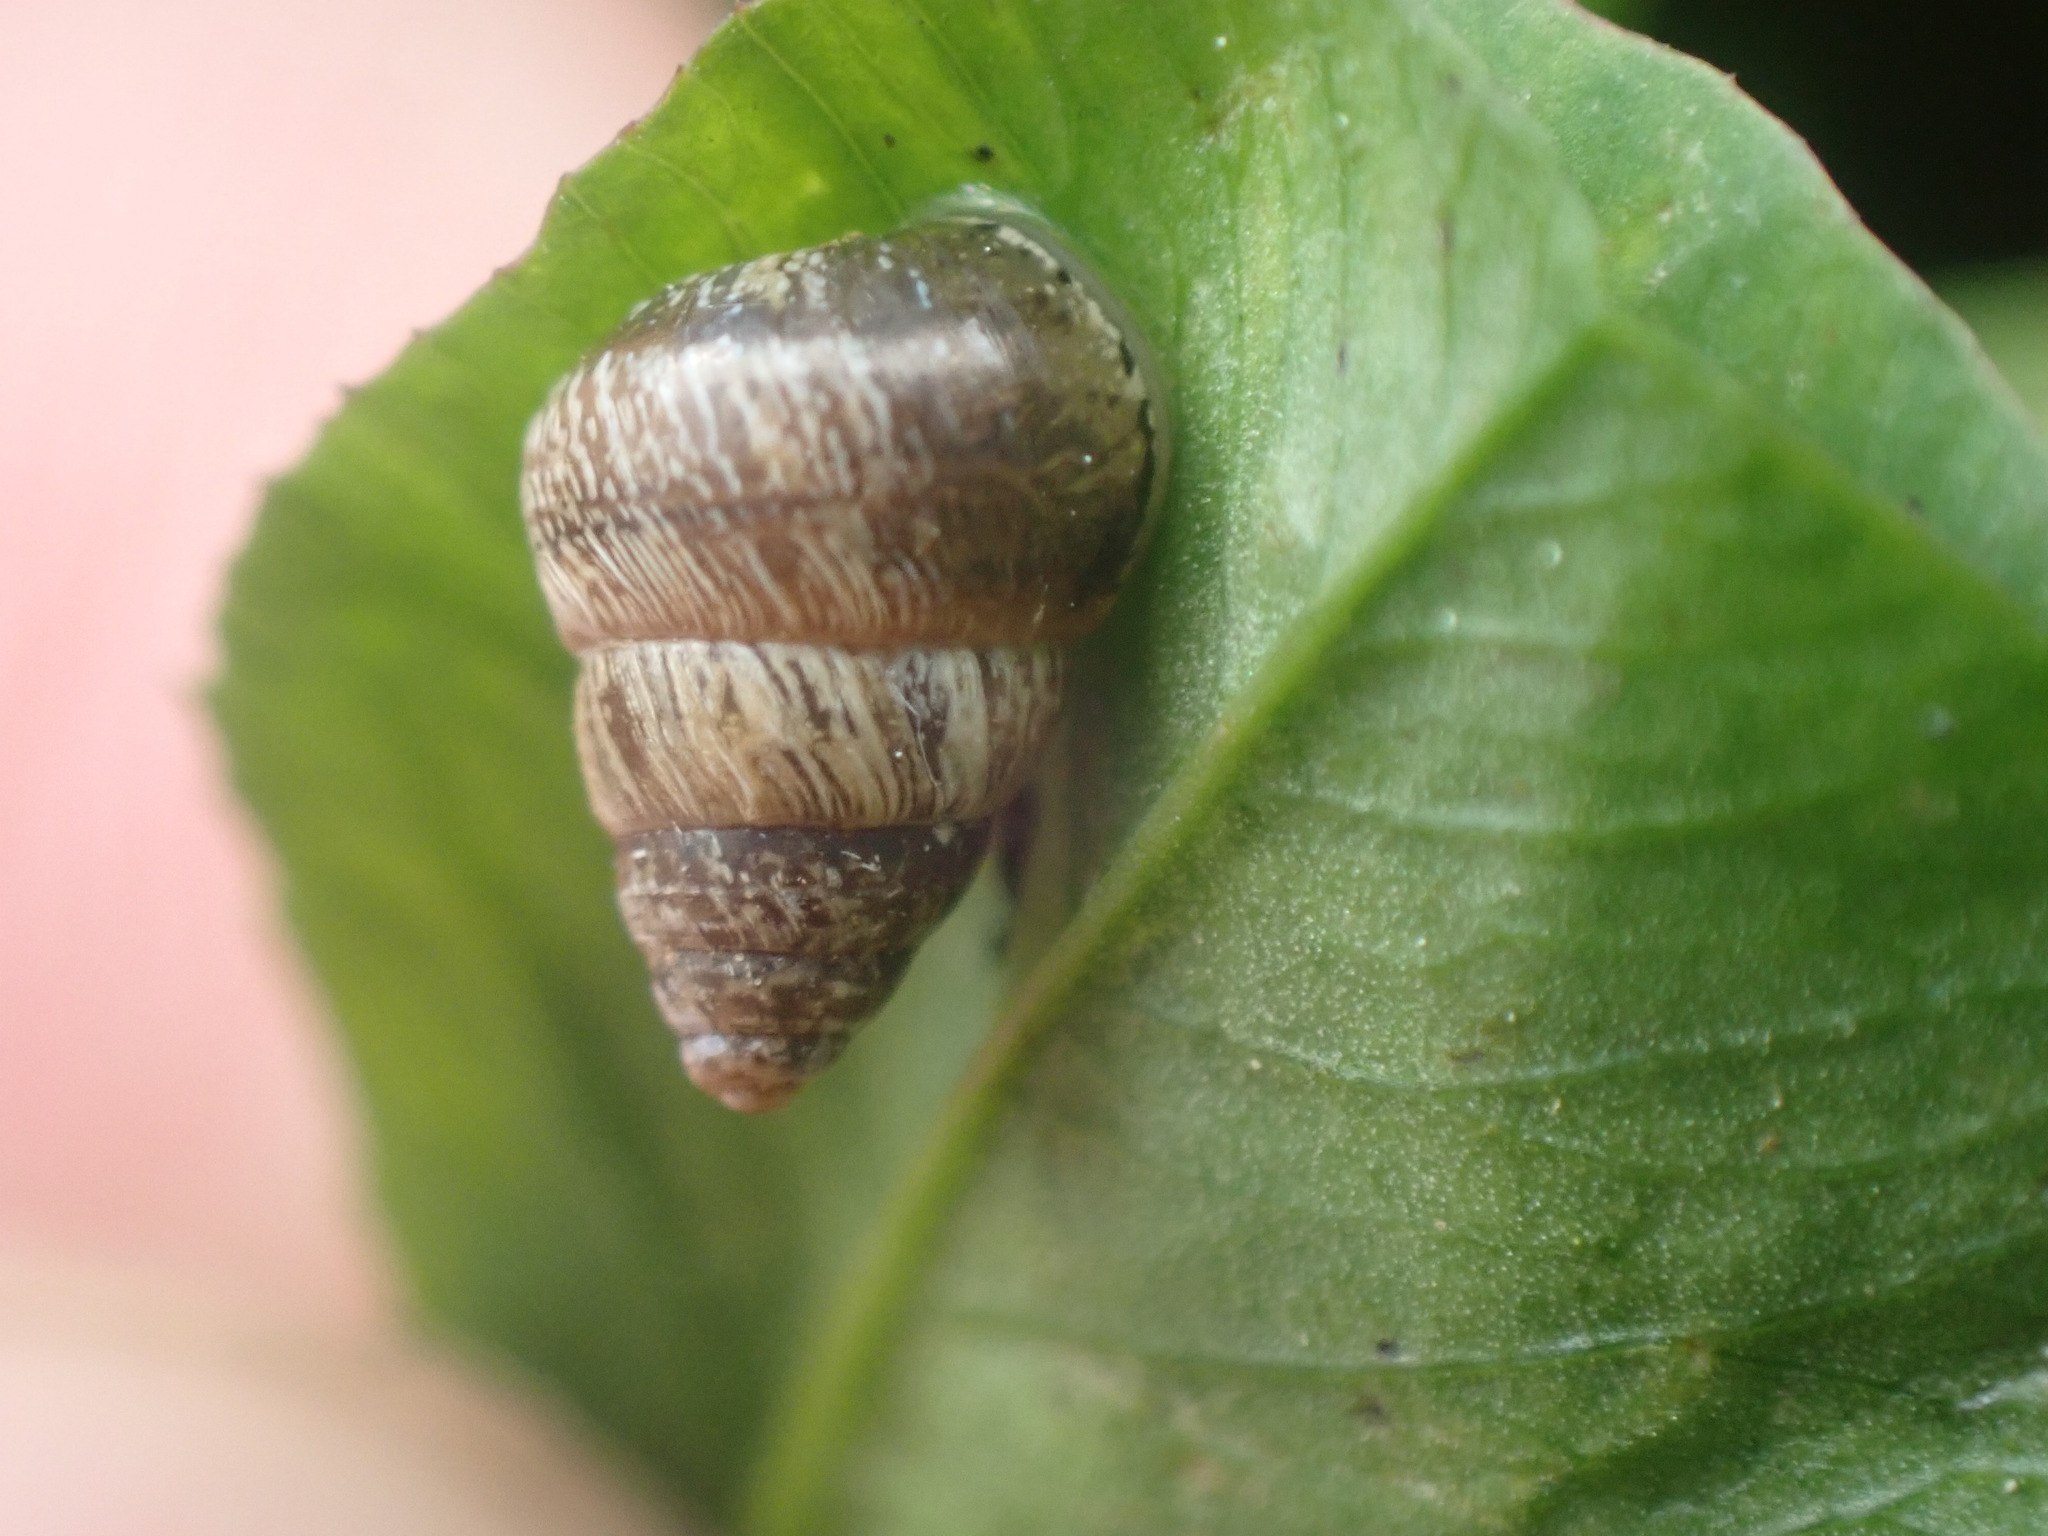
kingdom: Animalia
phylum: Mollusca
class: Gastropoda
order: Stylommatophora
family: Geomitridae
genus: Cochlicella
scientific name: Cochlicella barbara
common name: Potbellied helicellid
